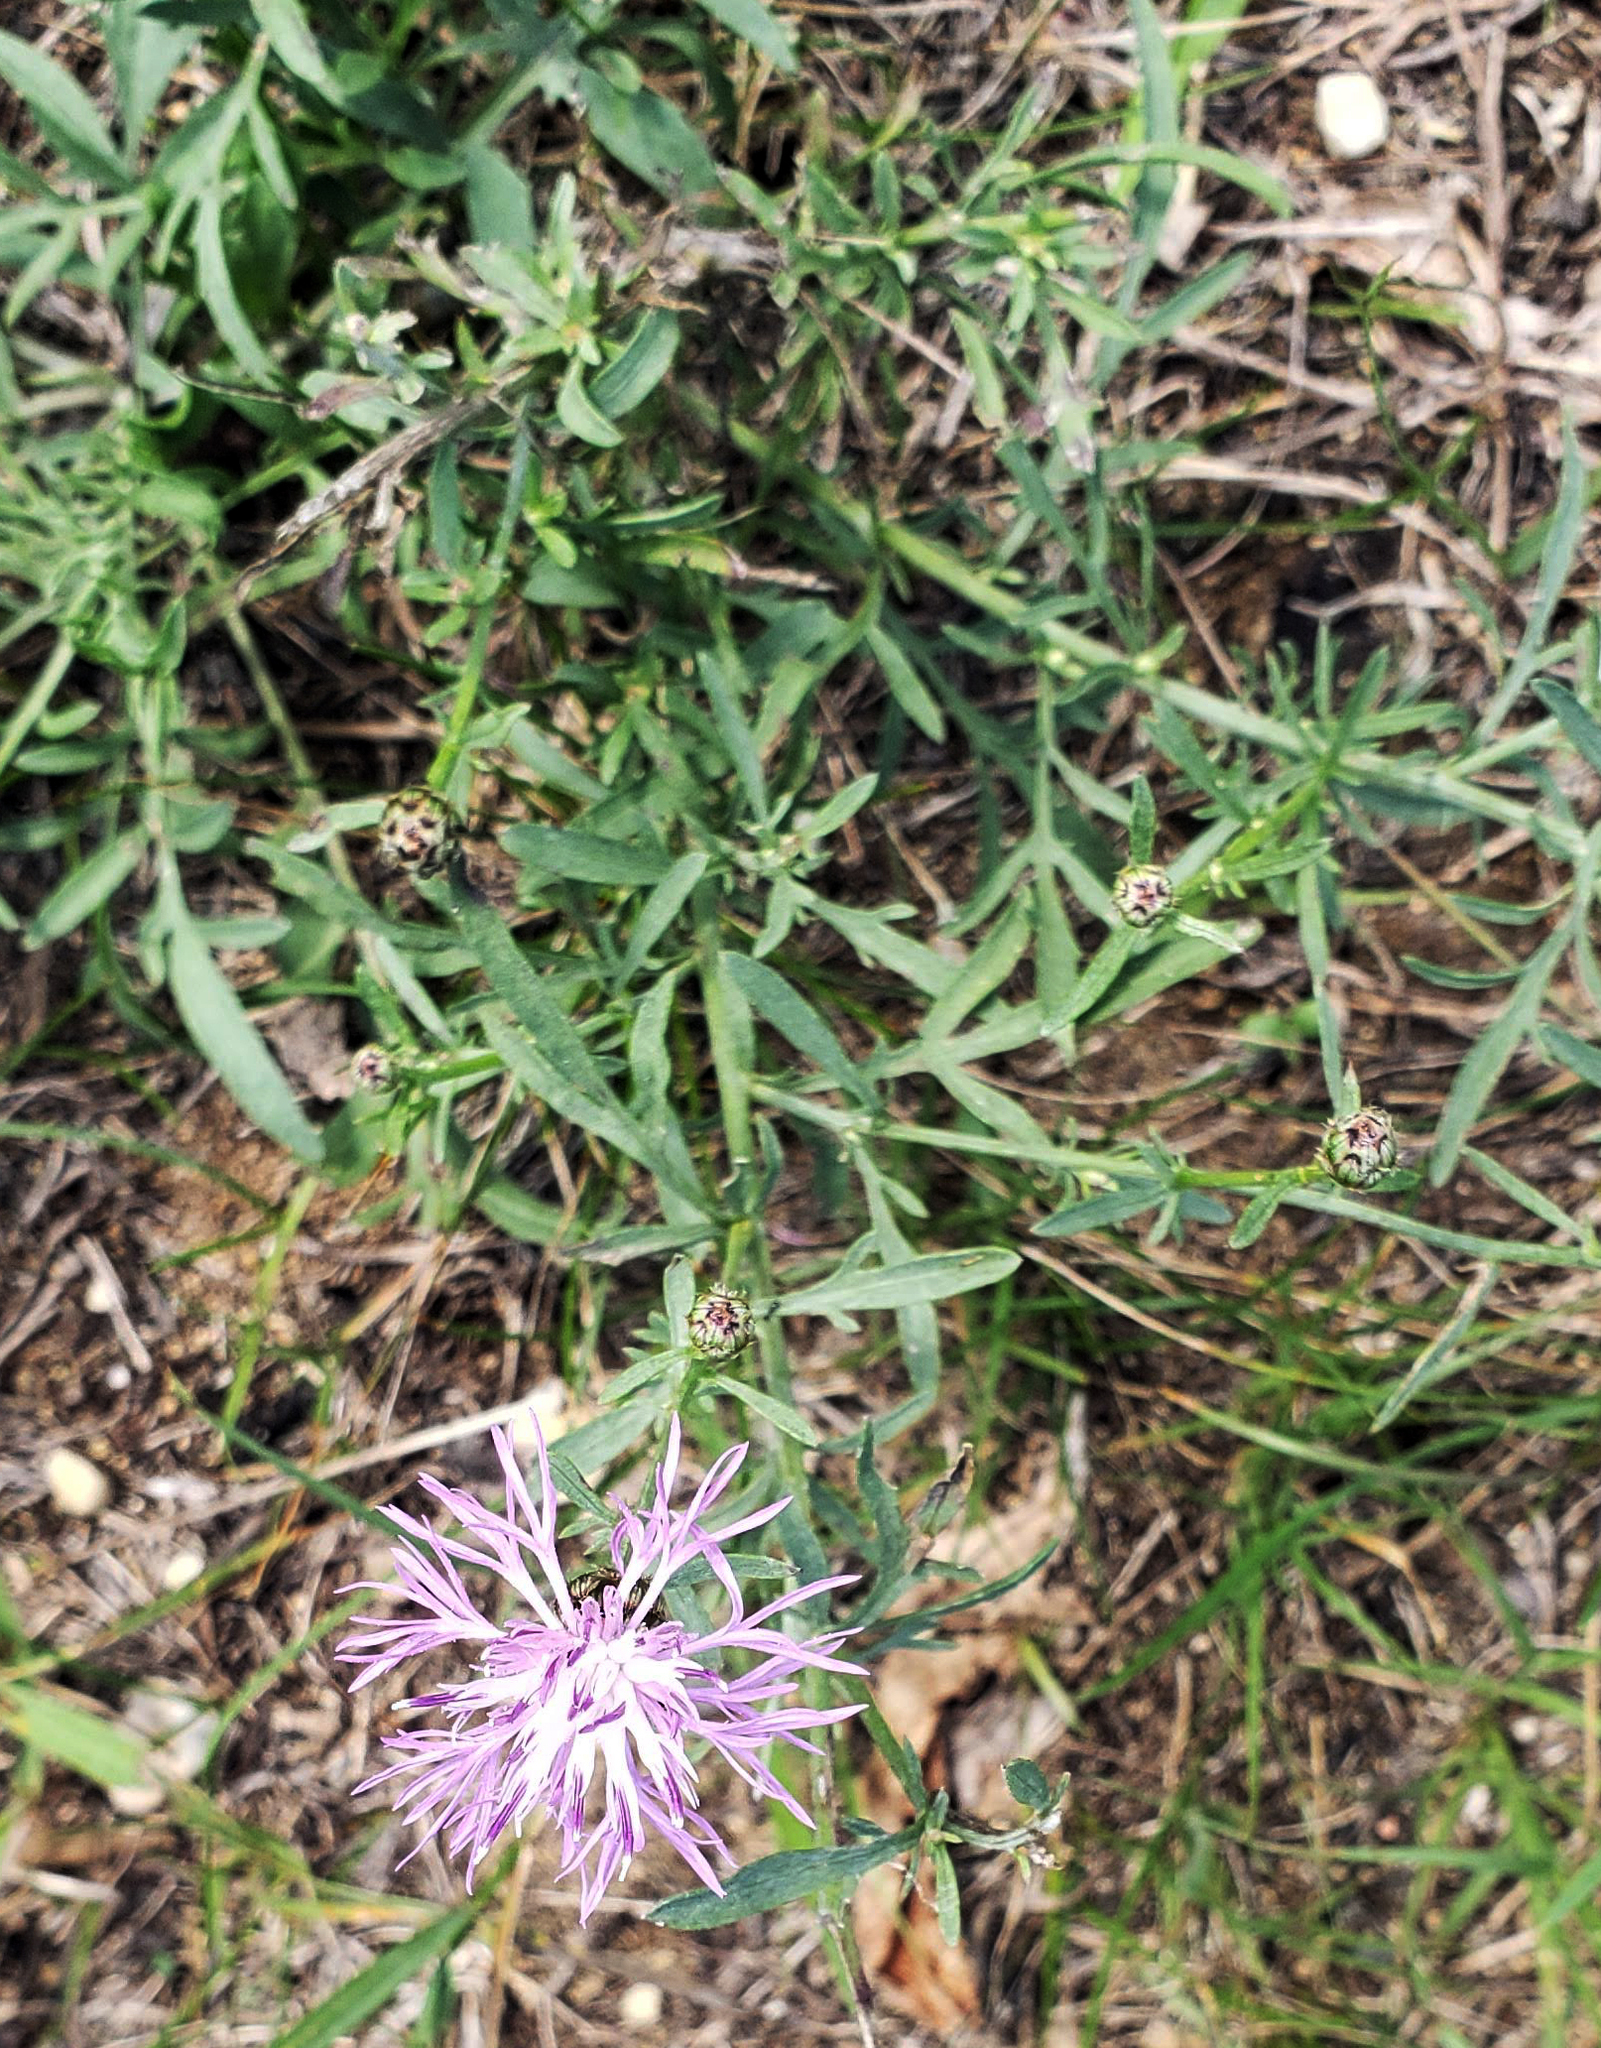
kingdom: Plantae
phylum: Tracheophyta
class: Magnoliopsida
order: Asterales
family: Asteraceae
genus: Centaurea
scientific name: Centaurea stoebe
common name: Spotted knapweed
